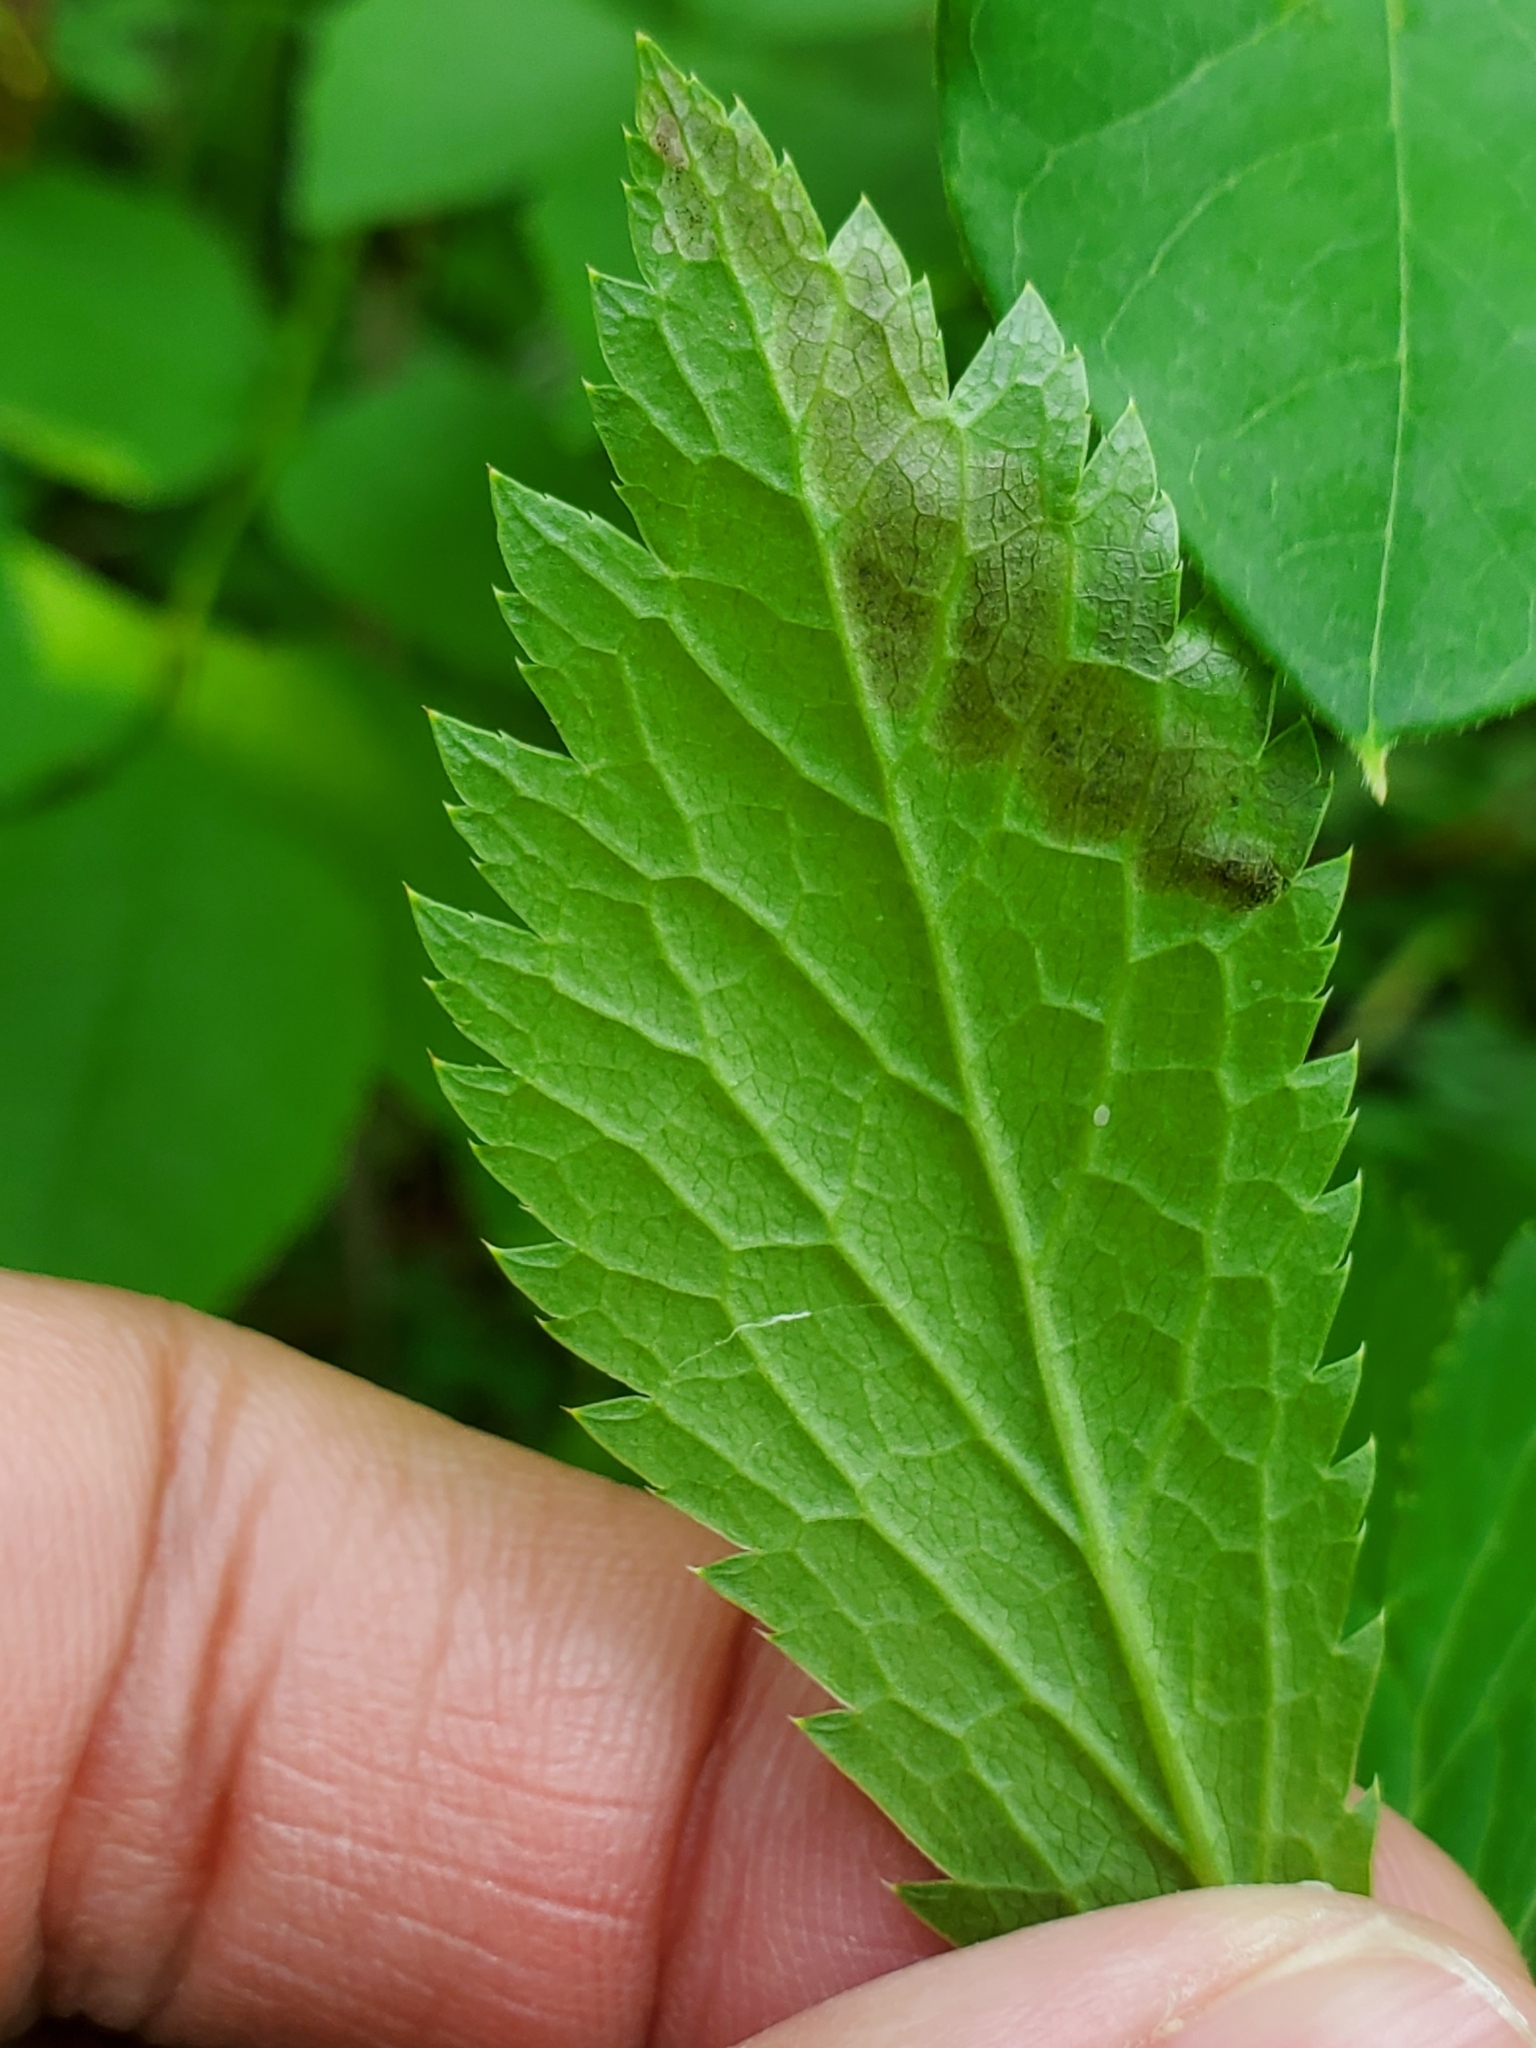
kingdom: Animalia
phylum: Arthropoda
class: Insecta
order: Diptera
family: Agromyzidae
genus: Phytomyza
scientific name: Phytomyza saniculae
